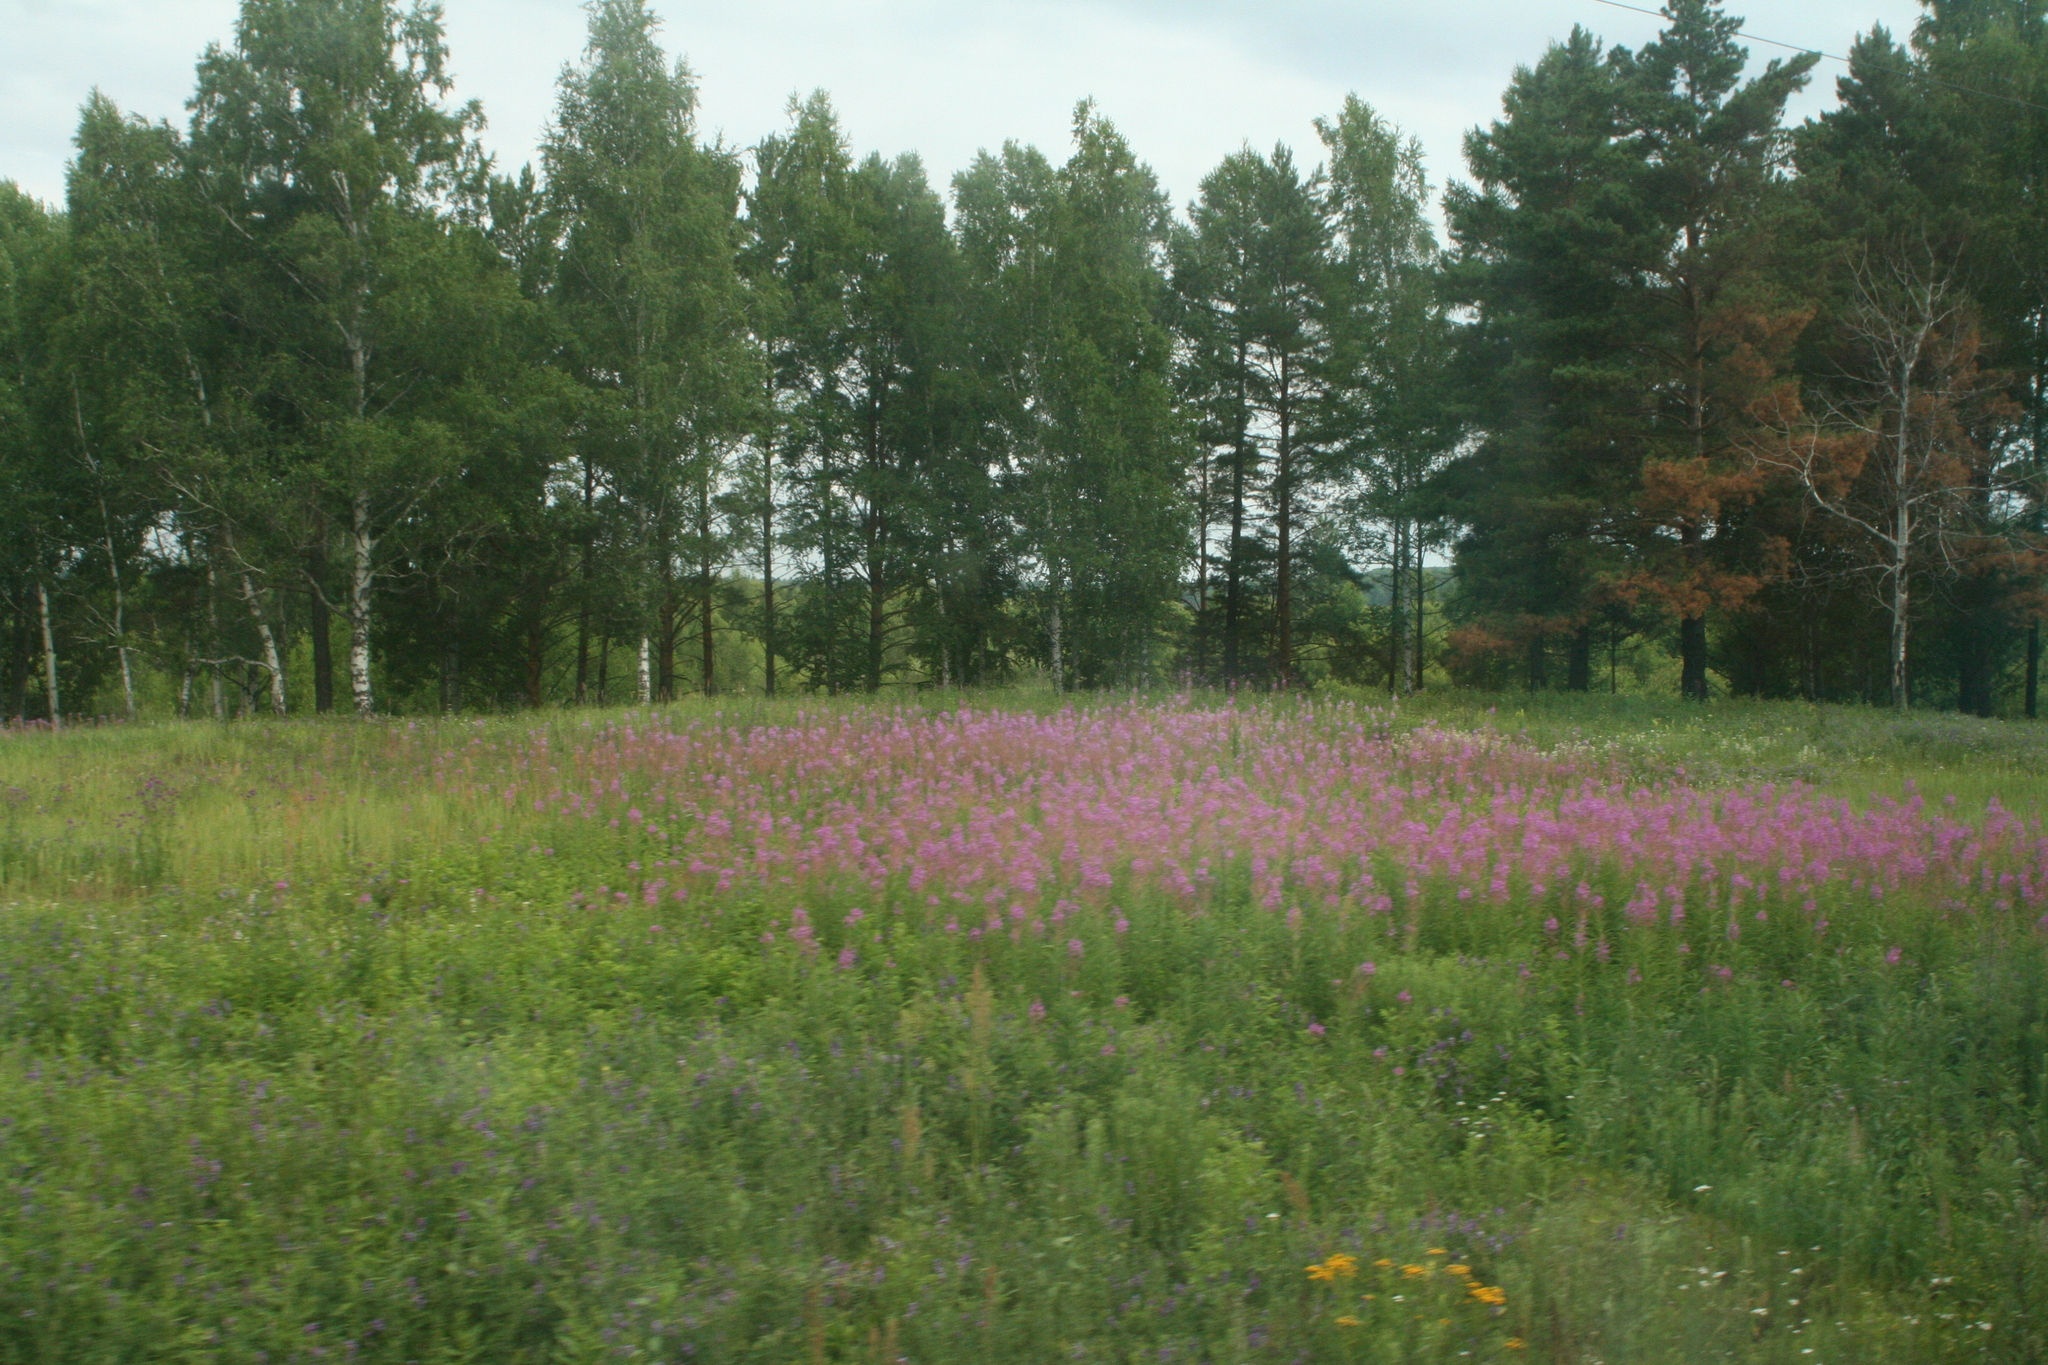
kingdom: Plantae
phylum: Tracheophyta
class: Magnoliopsida
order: Myrtales
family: Onagraceae
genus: Chamaenerion
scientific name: Chamaenerion angustifolium
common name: Fireweed
